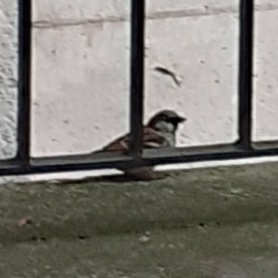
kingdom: Animalia
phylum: Chordata
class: Aves
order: Passeriformes
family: Passeridae
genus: Passer
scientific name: Passer domesticus
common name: House sparrow
